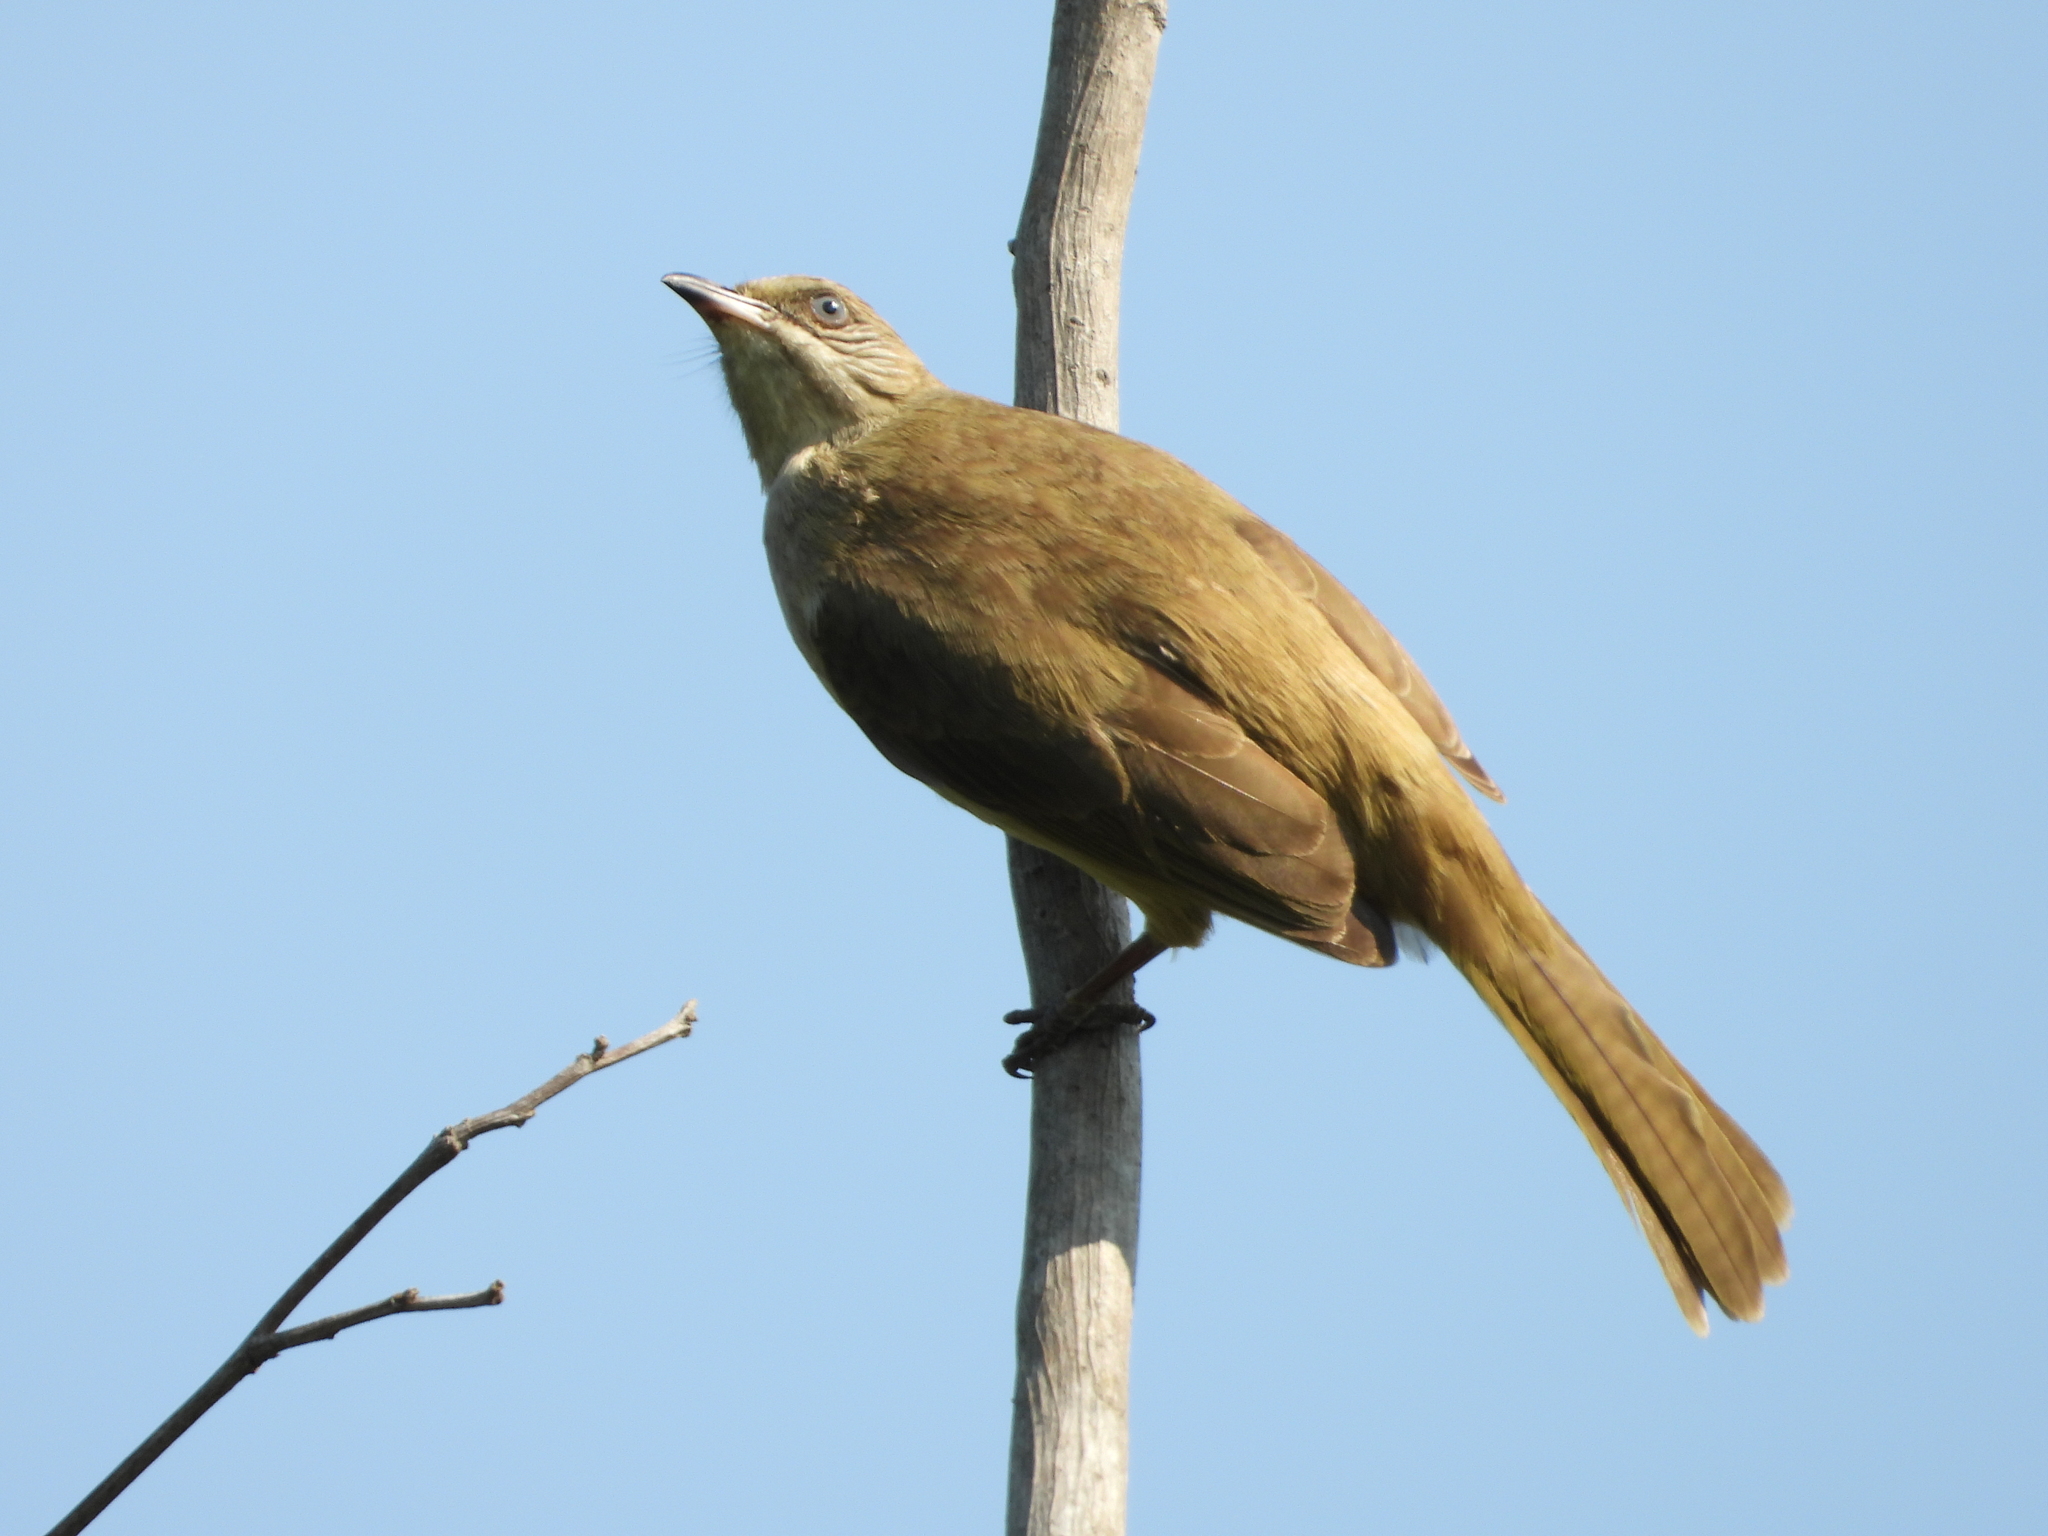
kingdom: Animalia
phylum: Chordata
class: Aves
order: Passeriformes
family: Pycnonotidae
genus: Pycnonotus
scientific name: Pycnonotus blanfordi
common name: Streak-eared bulbul
